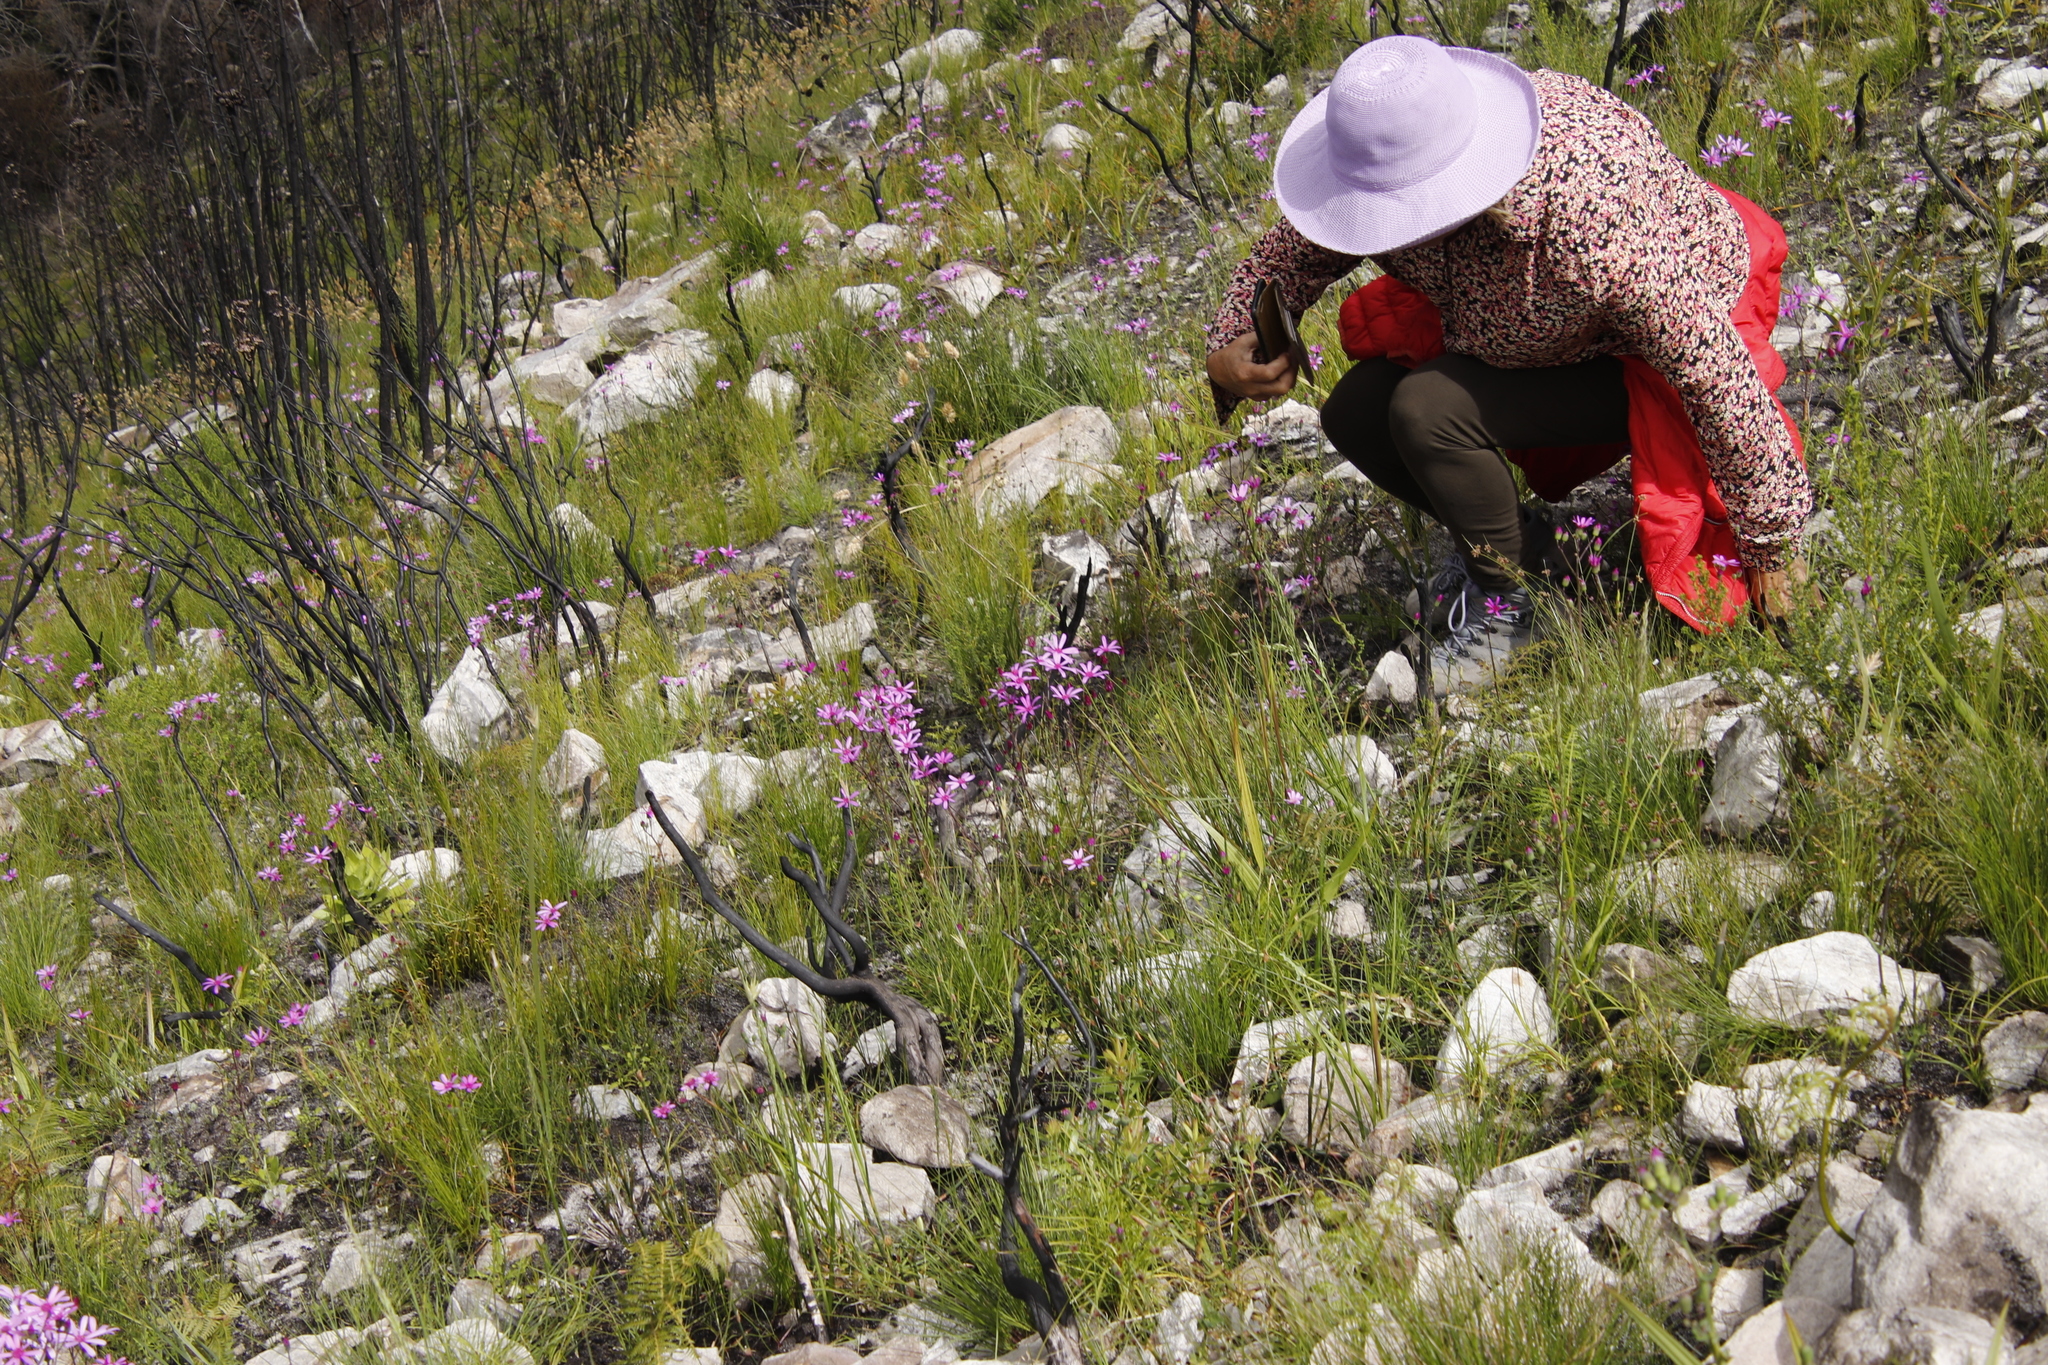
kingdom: Plantae
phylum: Tracheophyta
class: Magnoliopsida
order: Asterales
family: Asteraceae
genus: Senecio
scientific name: Senecio cymbalariifolius
